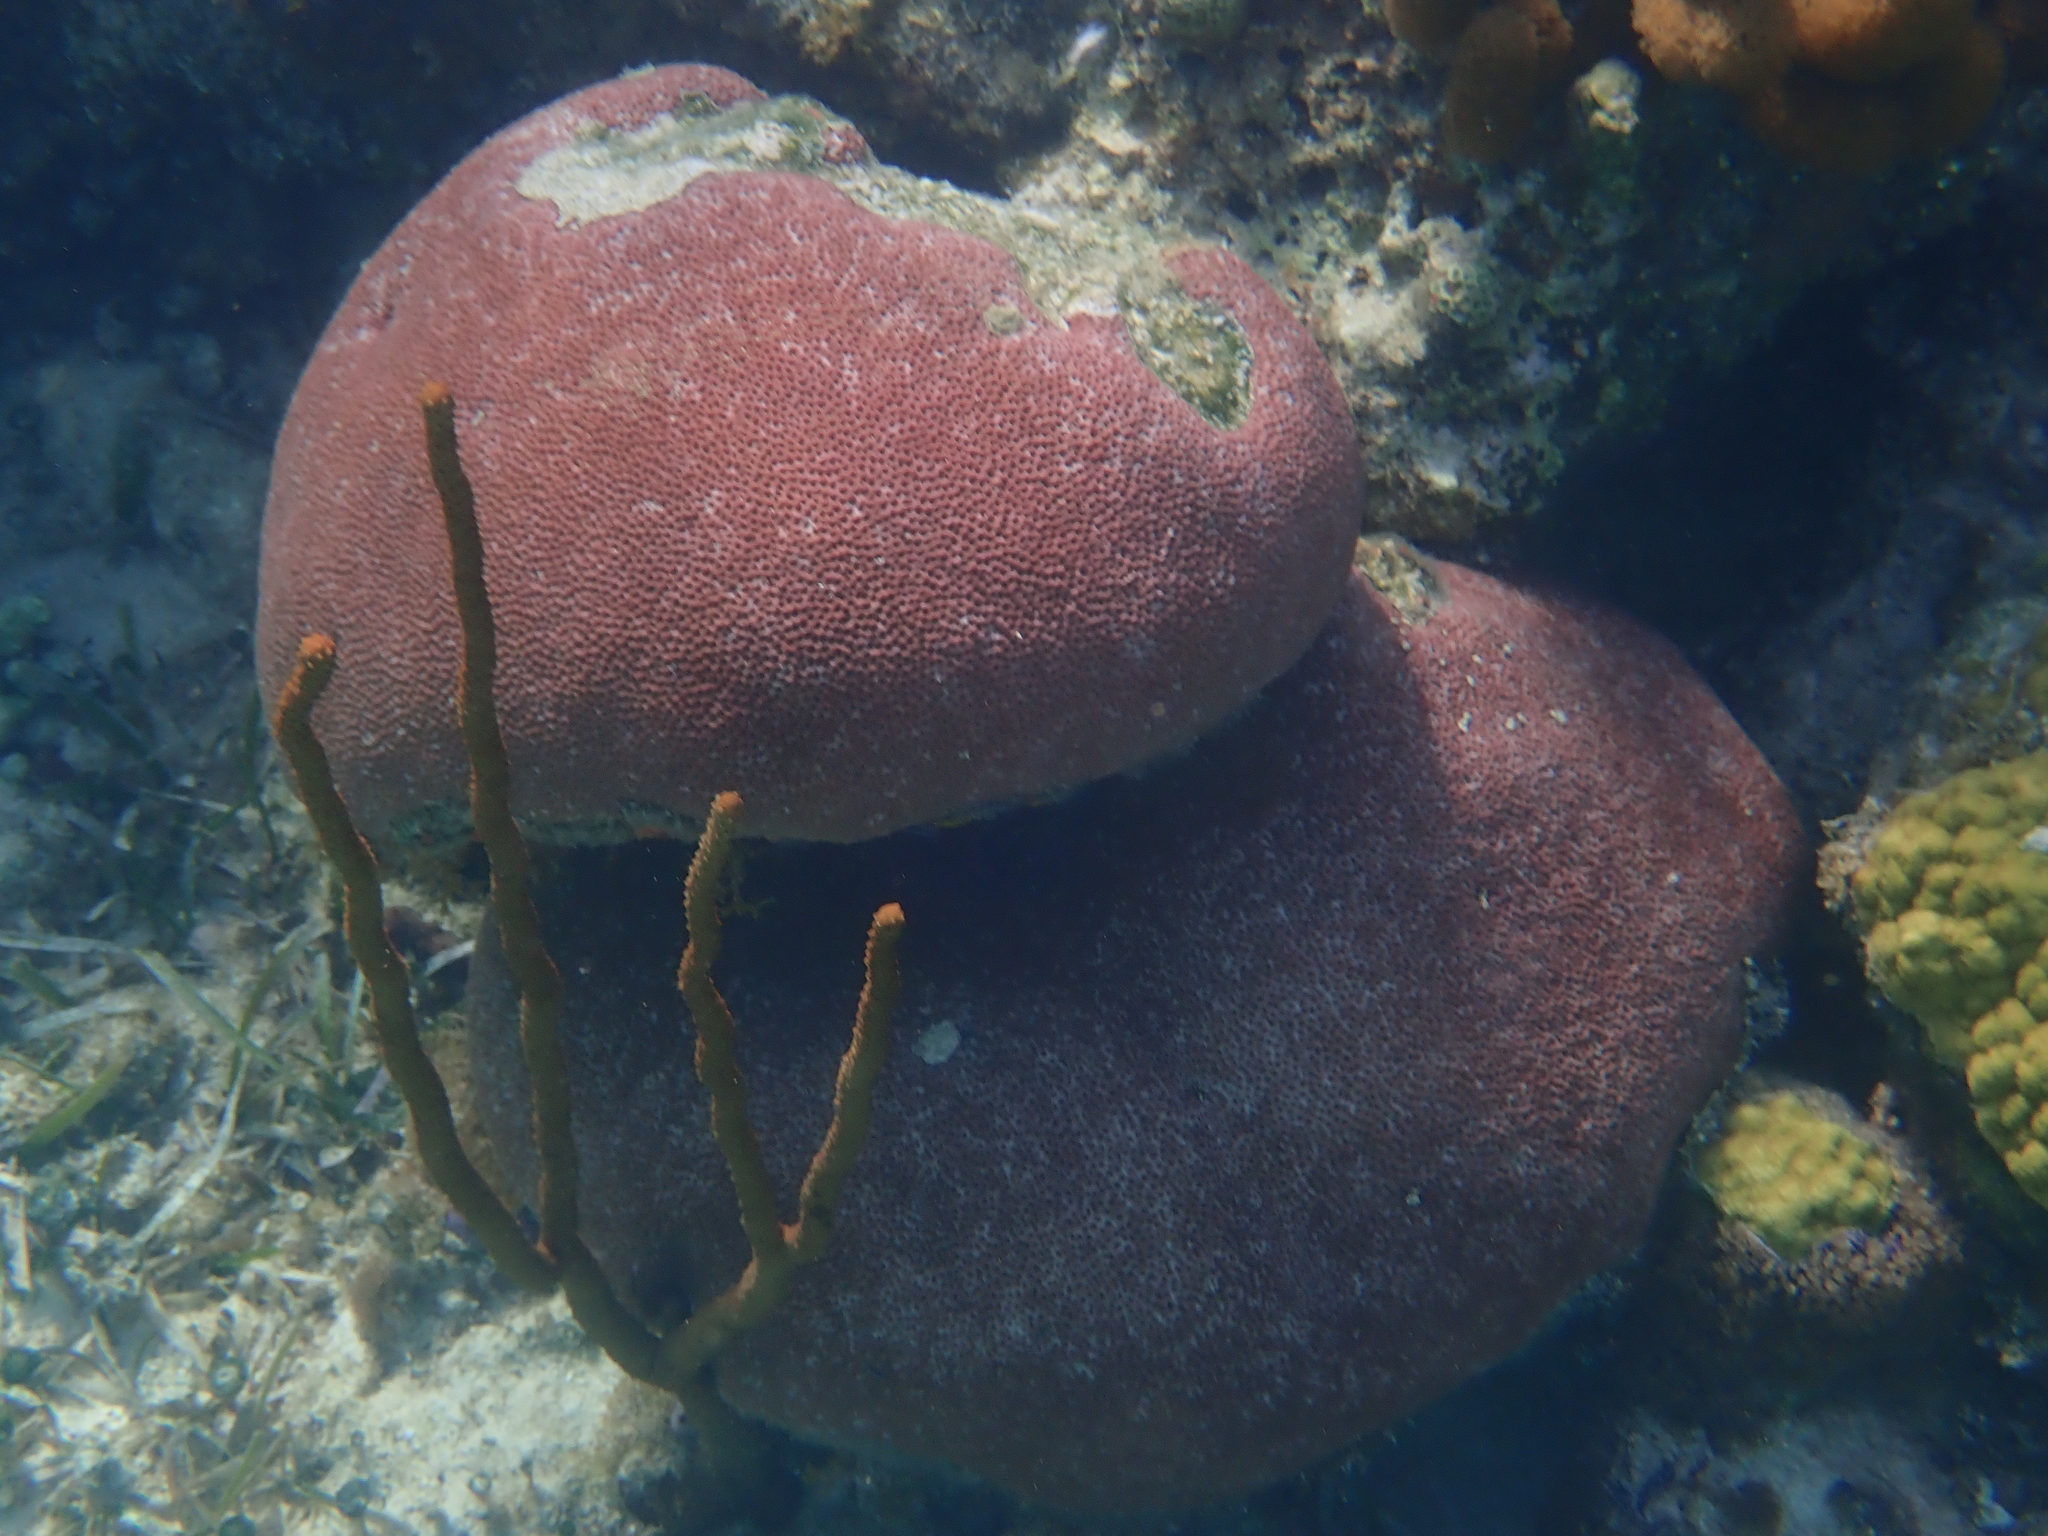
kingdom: Animalia
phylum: Cnidaria
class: Anthozoa
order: Scleractinia
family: Rhizangiidae
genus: Siderastrea
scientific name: Siderastrea siderea
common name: Massive starlet coral
